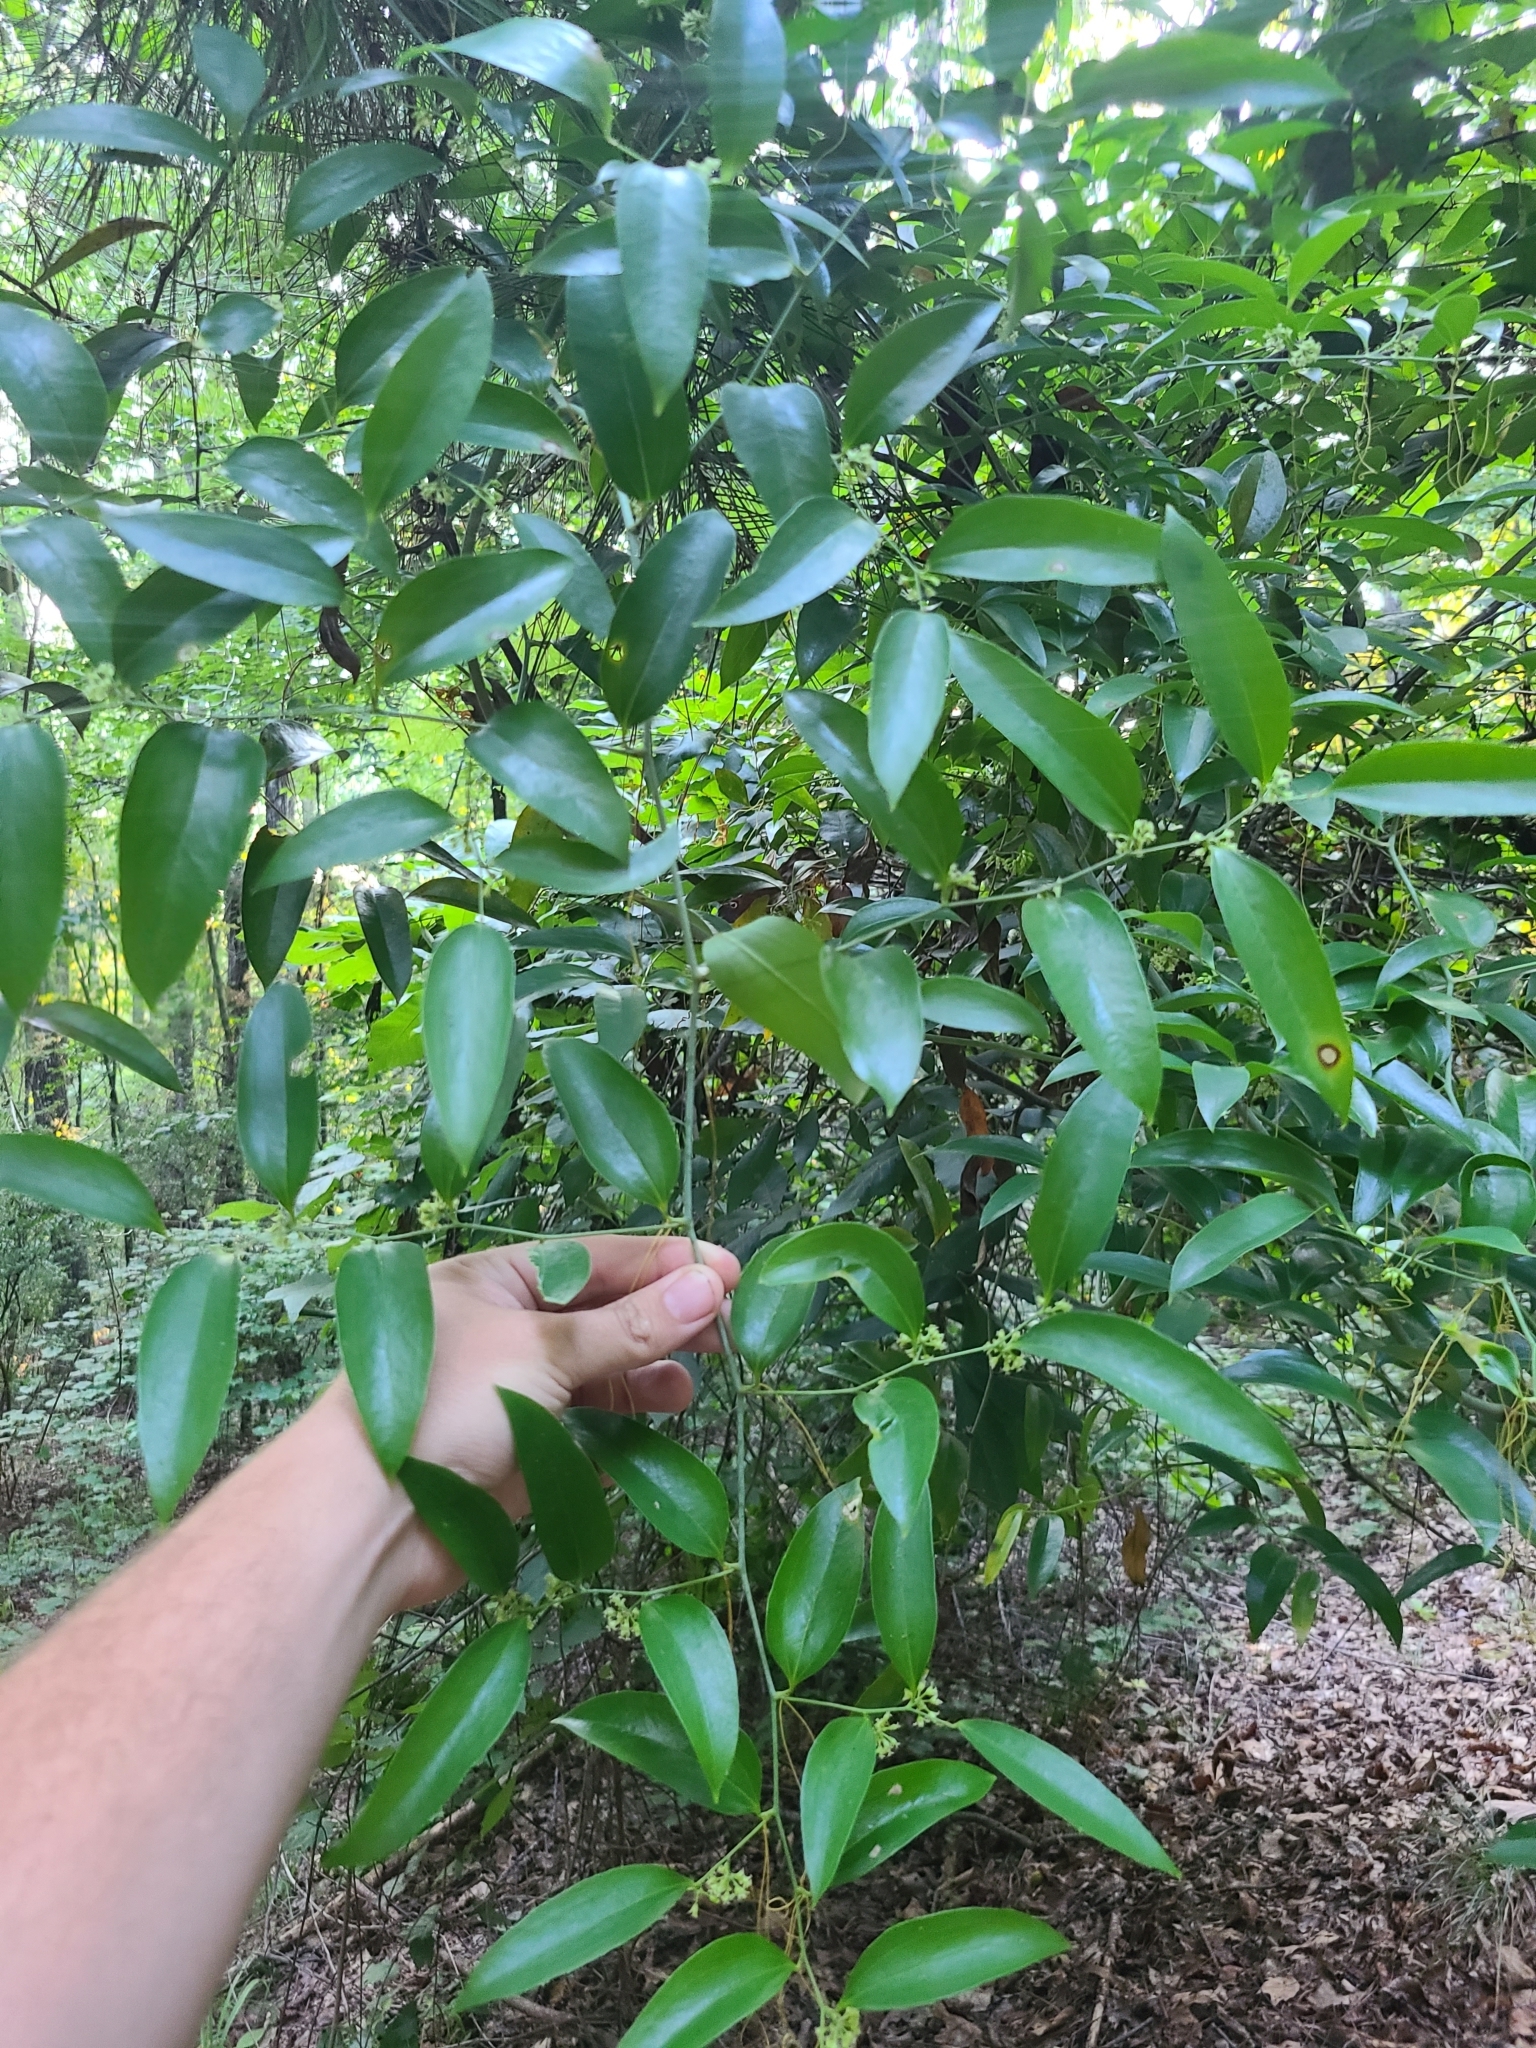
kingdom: Plantae
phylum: Tracheophyta
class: Liliopsida
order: Liliales
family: Smilacaceae
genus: Smilax
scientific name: Smilax maritima
